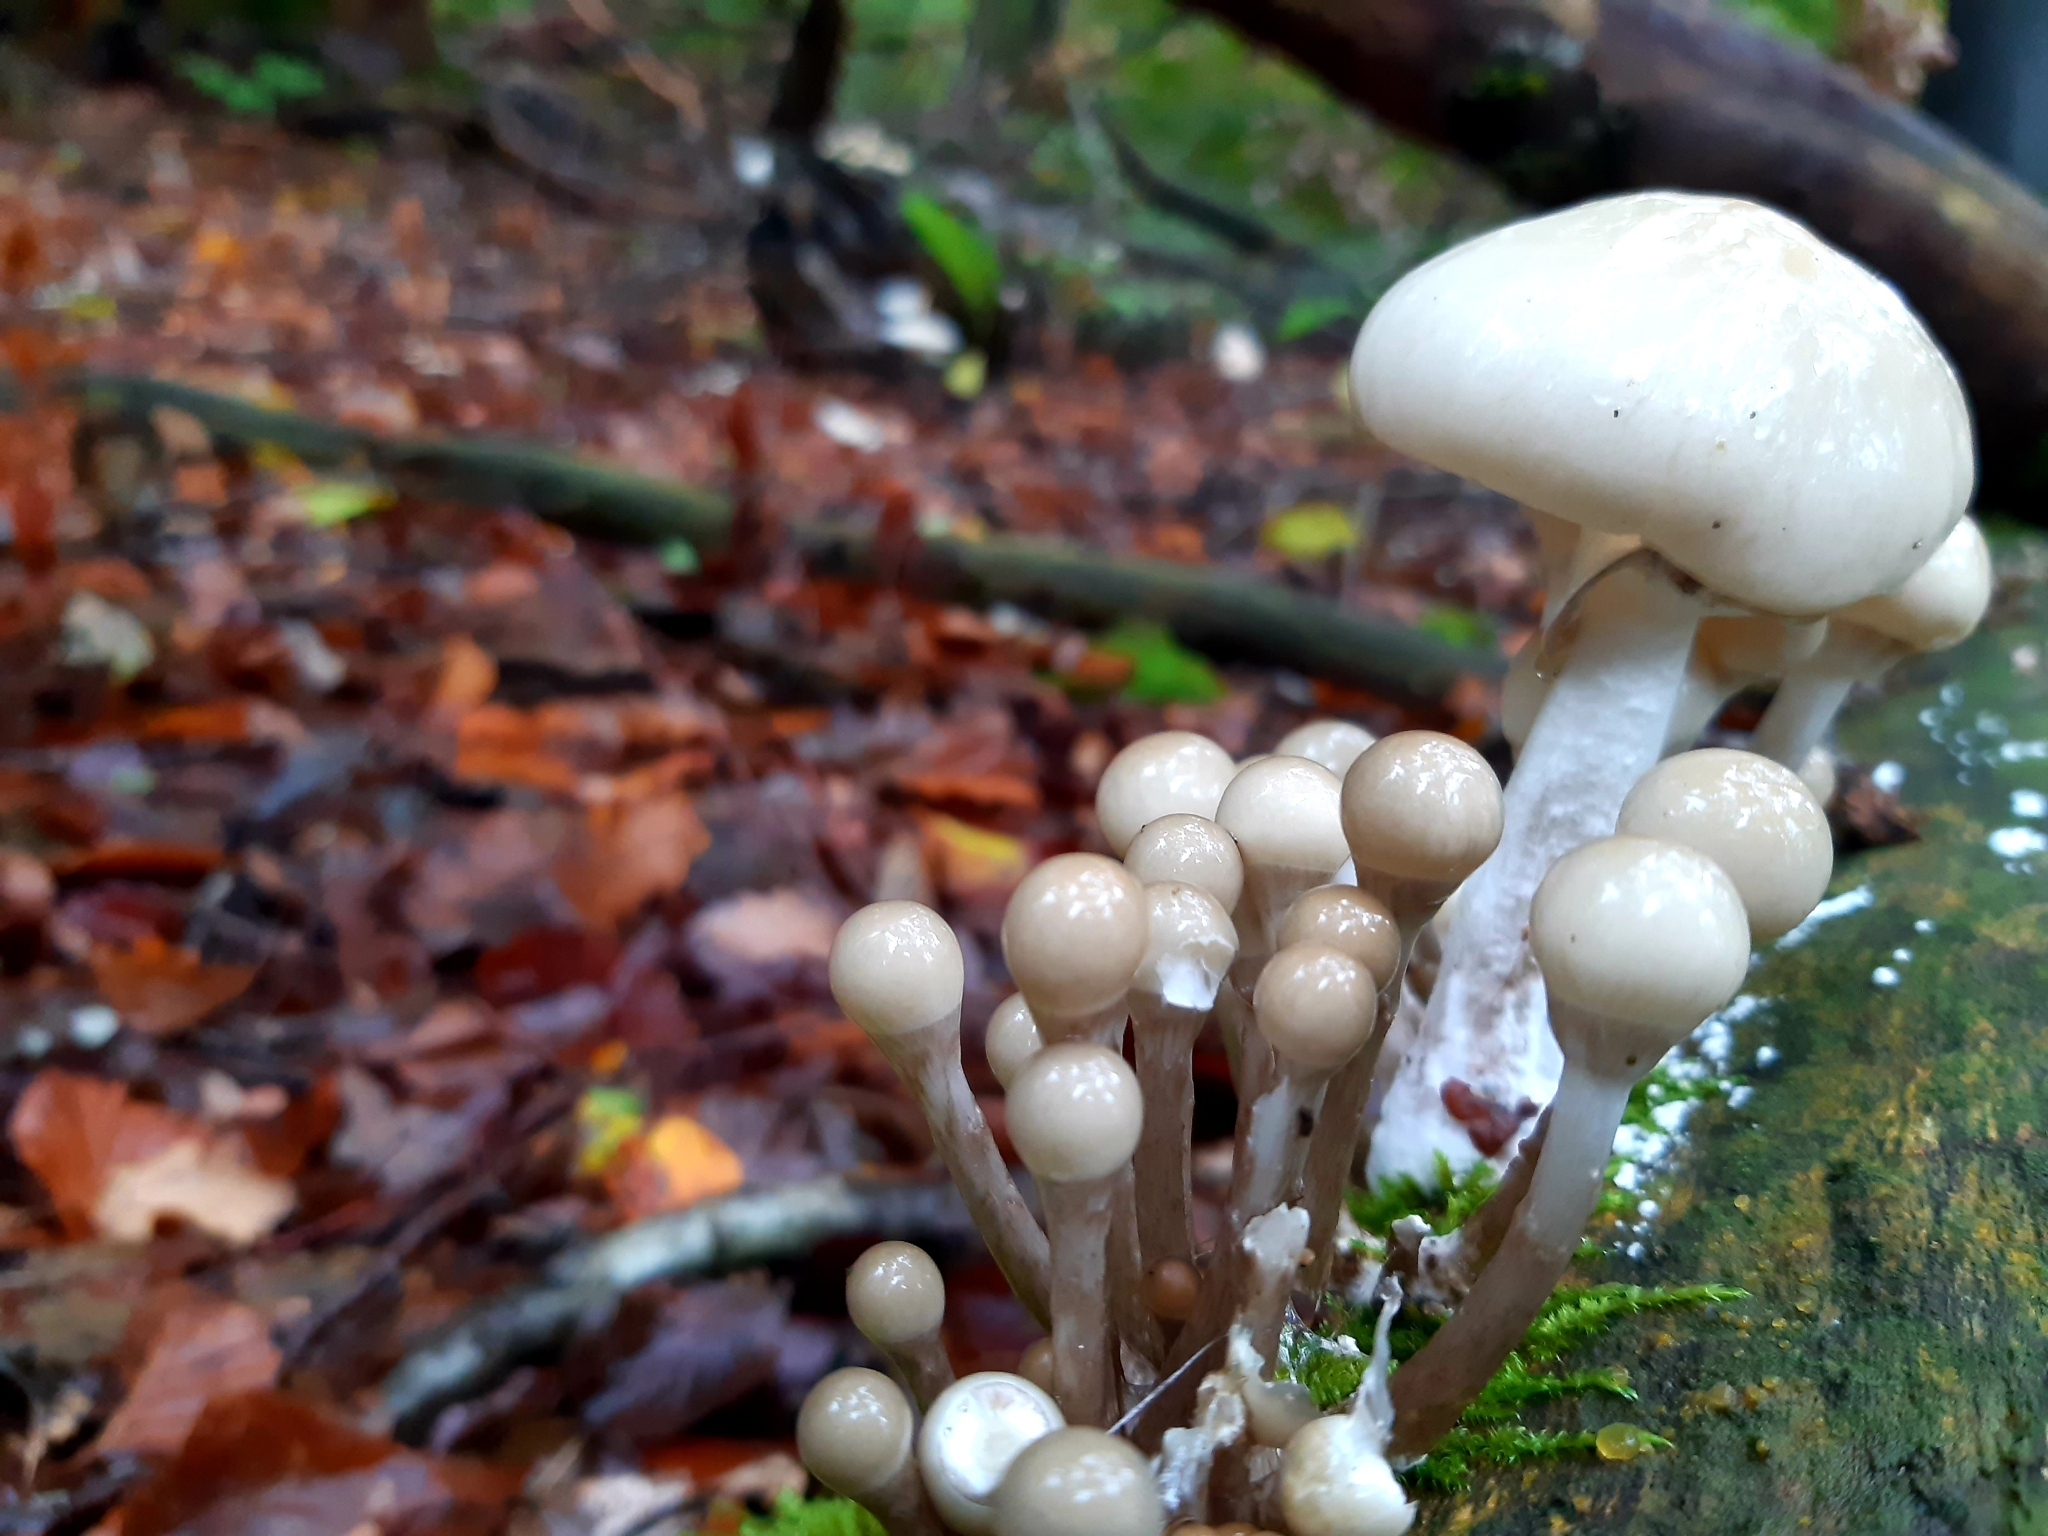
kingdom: Fungi
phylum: Basidiomycota
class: Agaricomycetes
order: Agaricales
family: Physalacriaceae
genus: Mucidula
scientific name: Mucidula mucida
